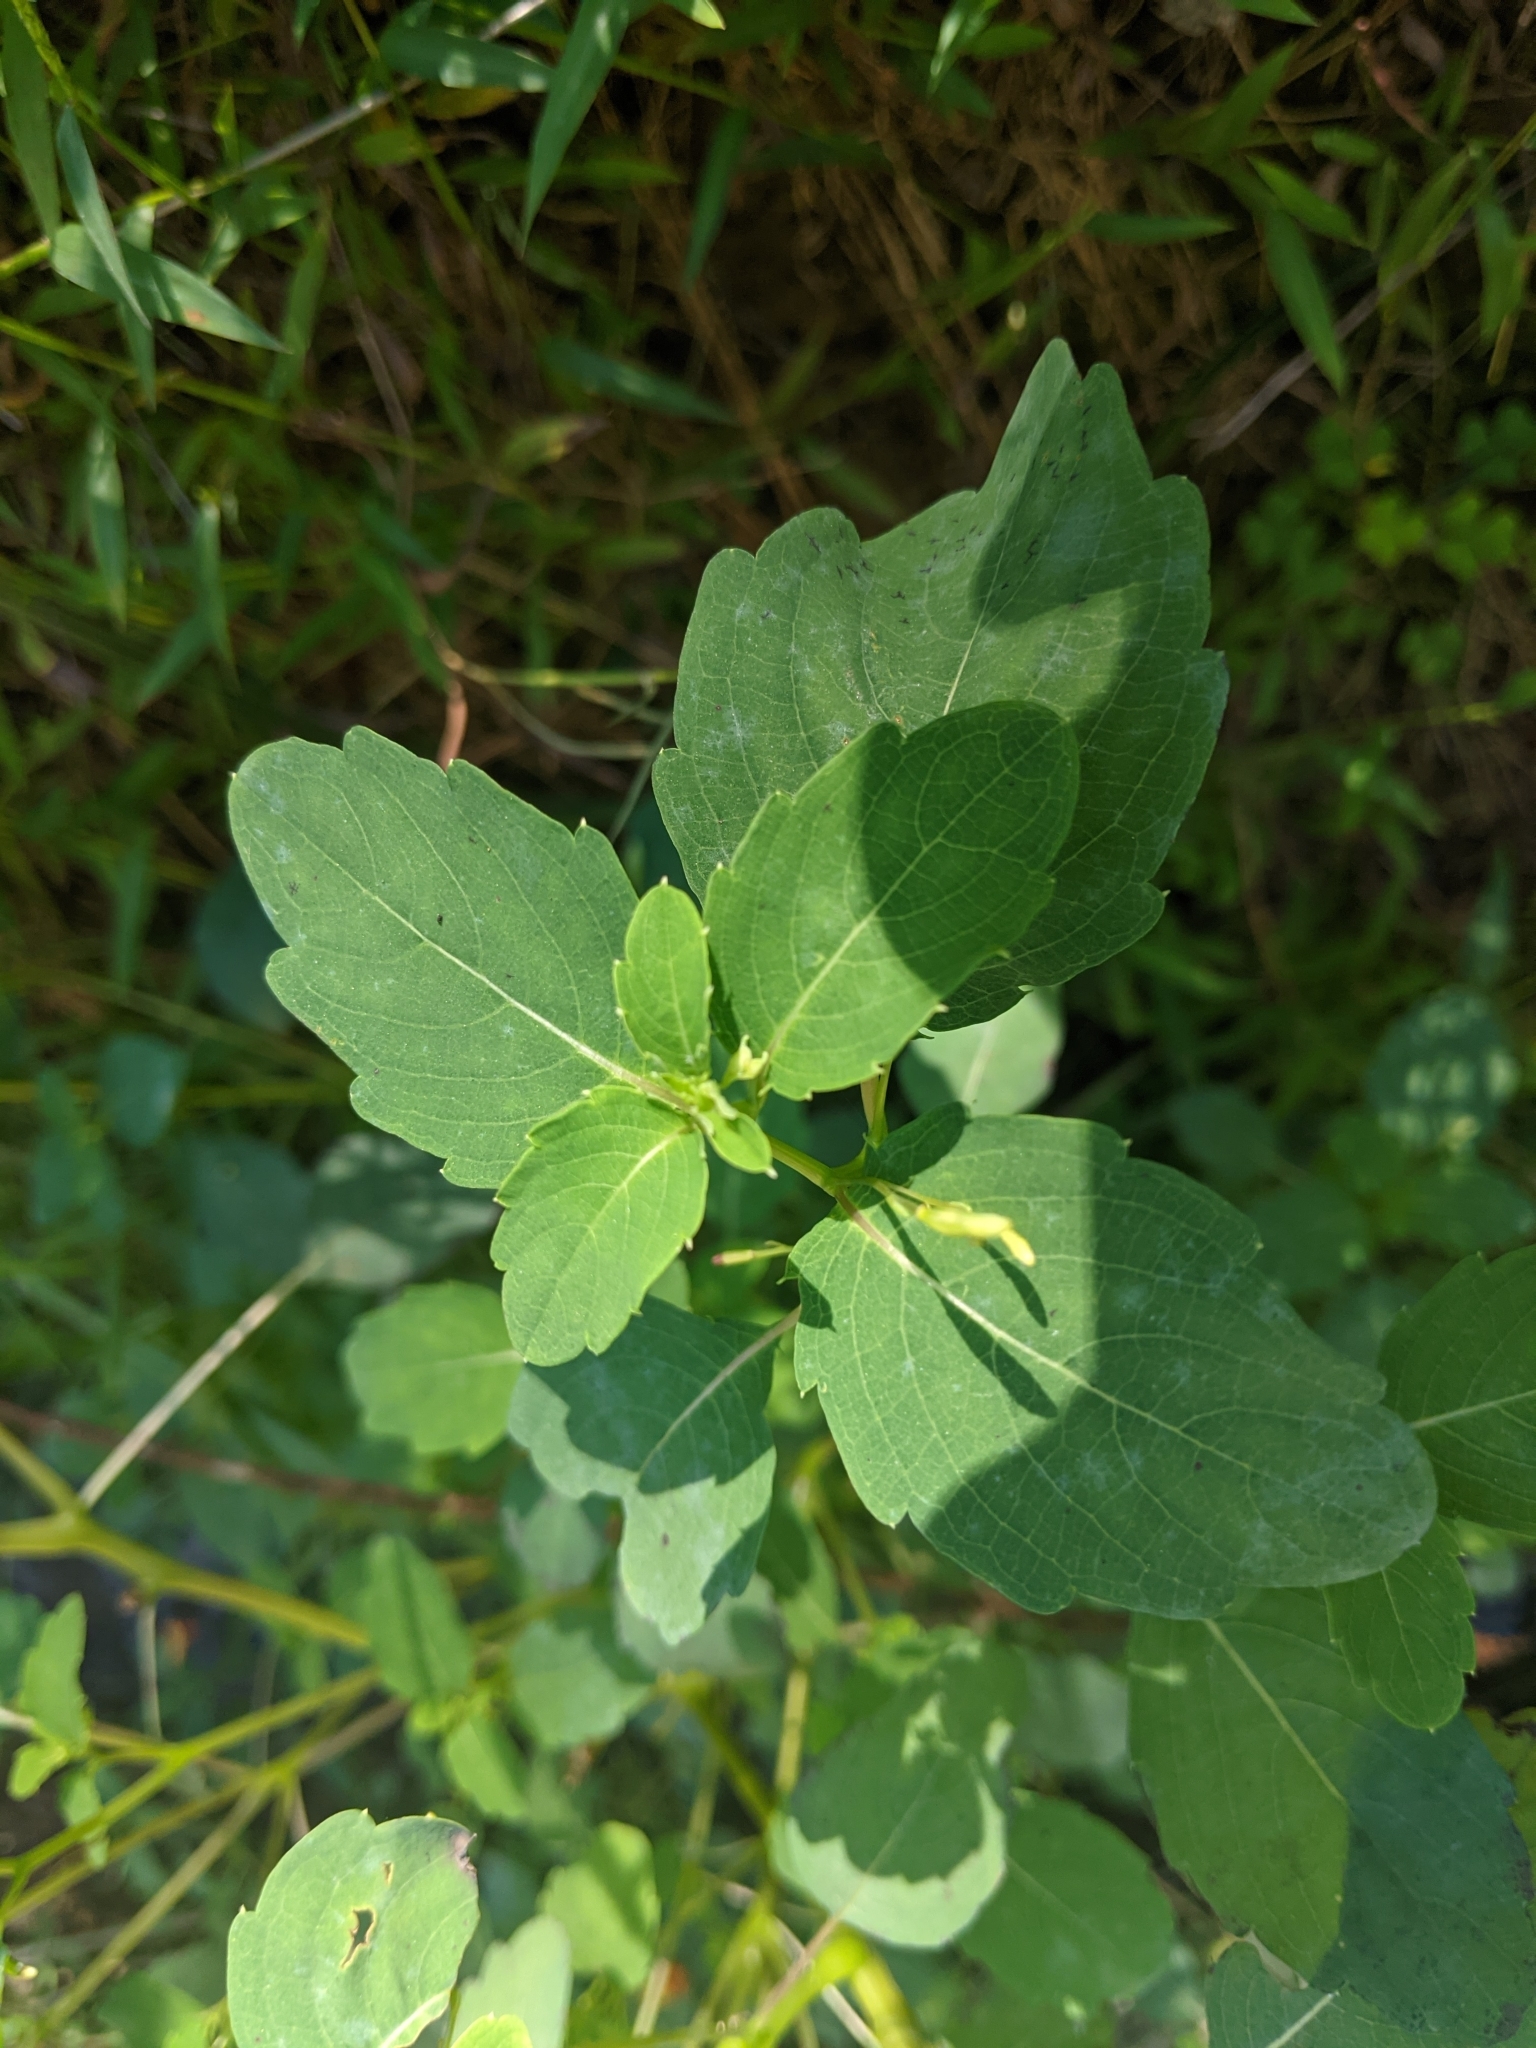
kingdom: Plantae
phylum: Tracheophyta
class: Magnoliopsida
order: Ericales
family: Balsaminaceae
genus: Impatiens
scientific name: Impatiens capensis
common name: Orange balsam
